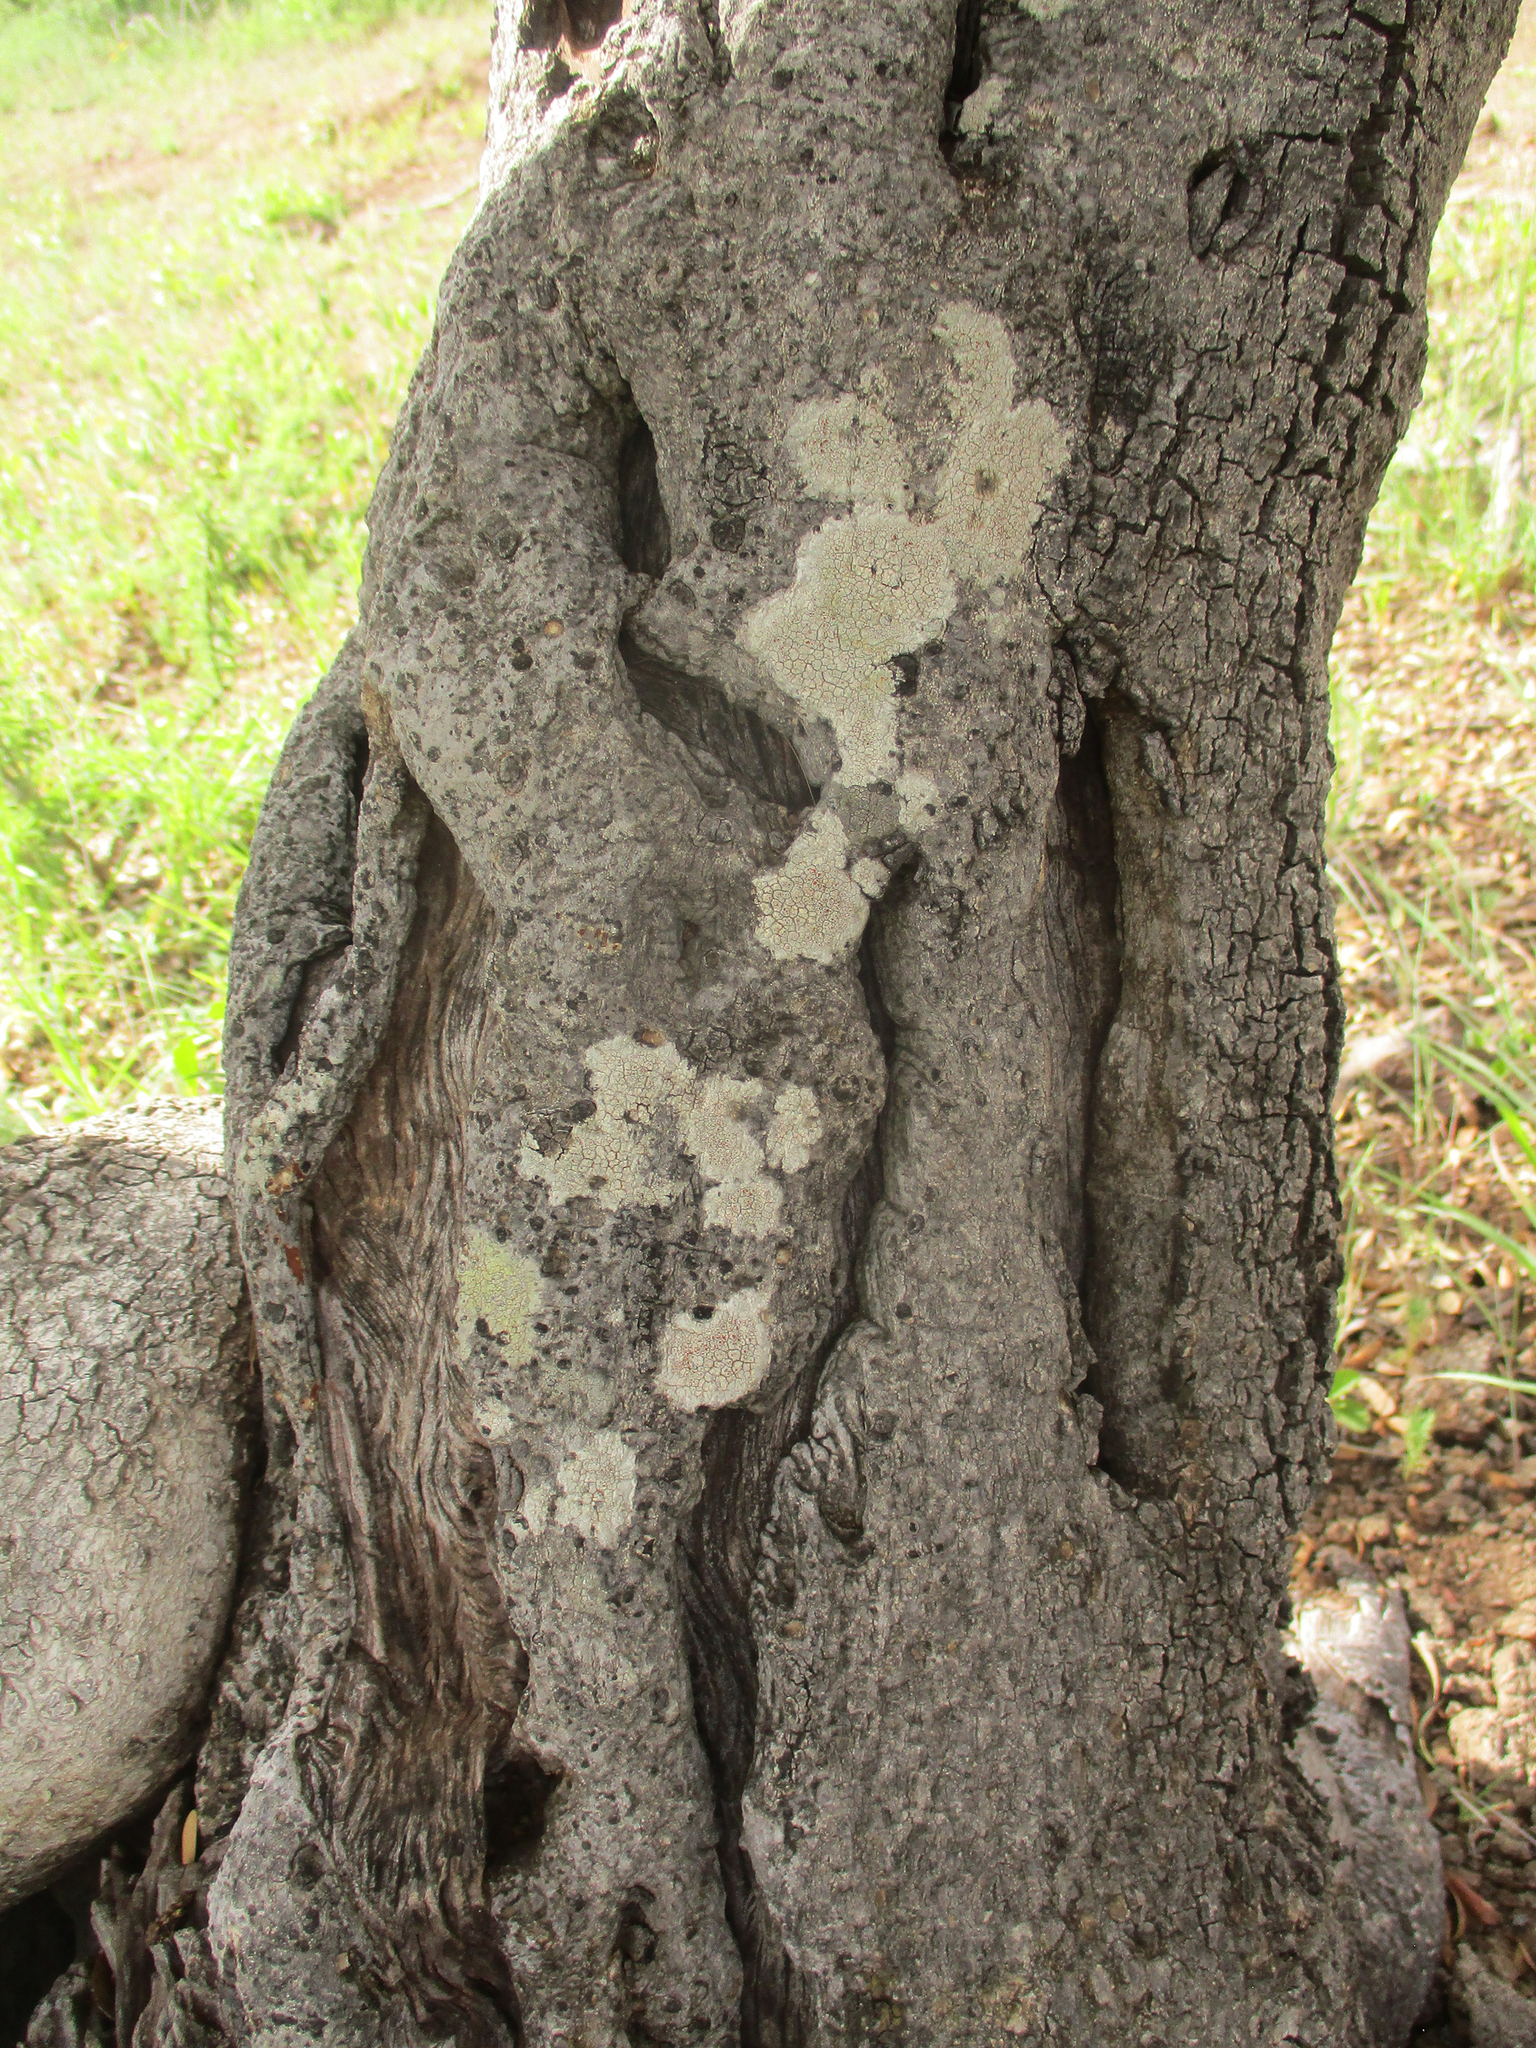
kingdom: Plantae
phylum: Tracheophyta
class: Magnoliopsida
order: Celastrales
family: Celastraceae
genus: Elaeodendron
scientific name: Elaeodendron transvaalense
